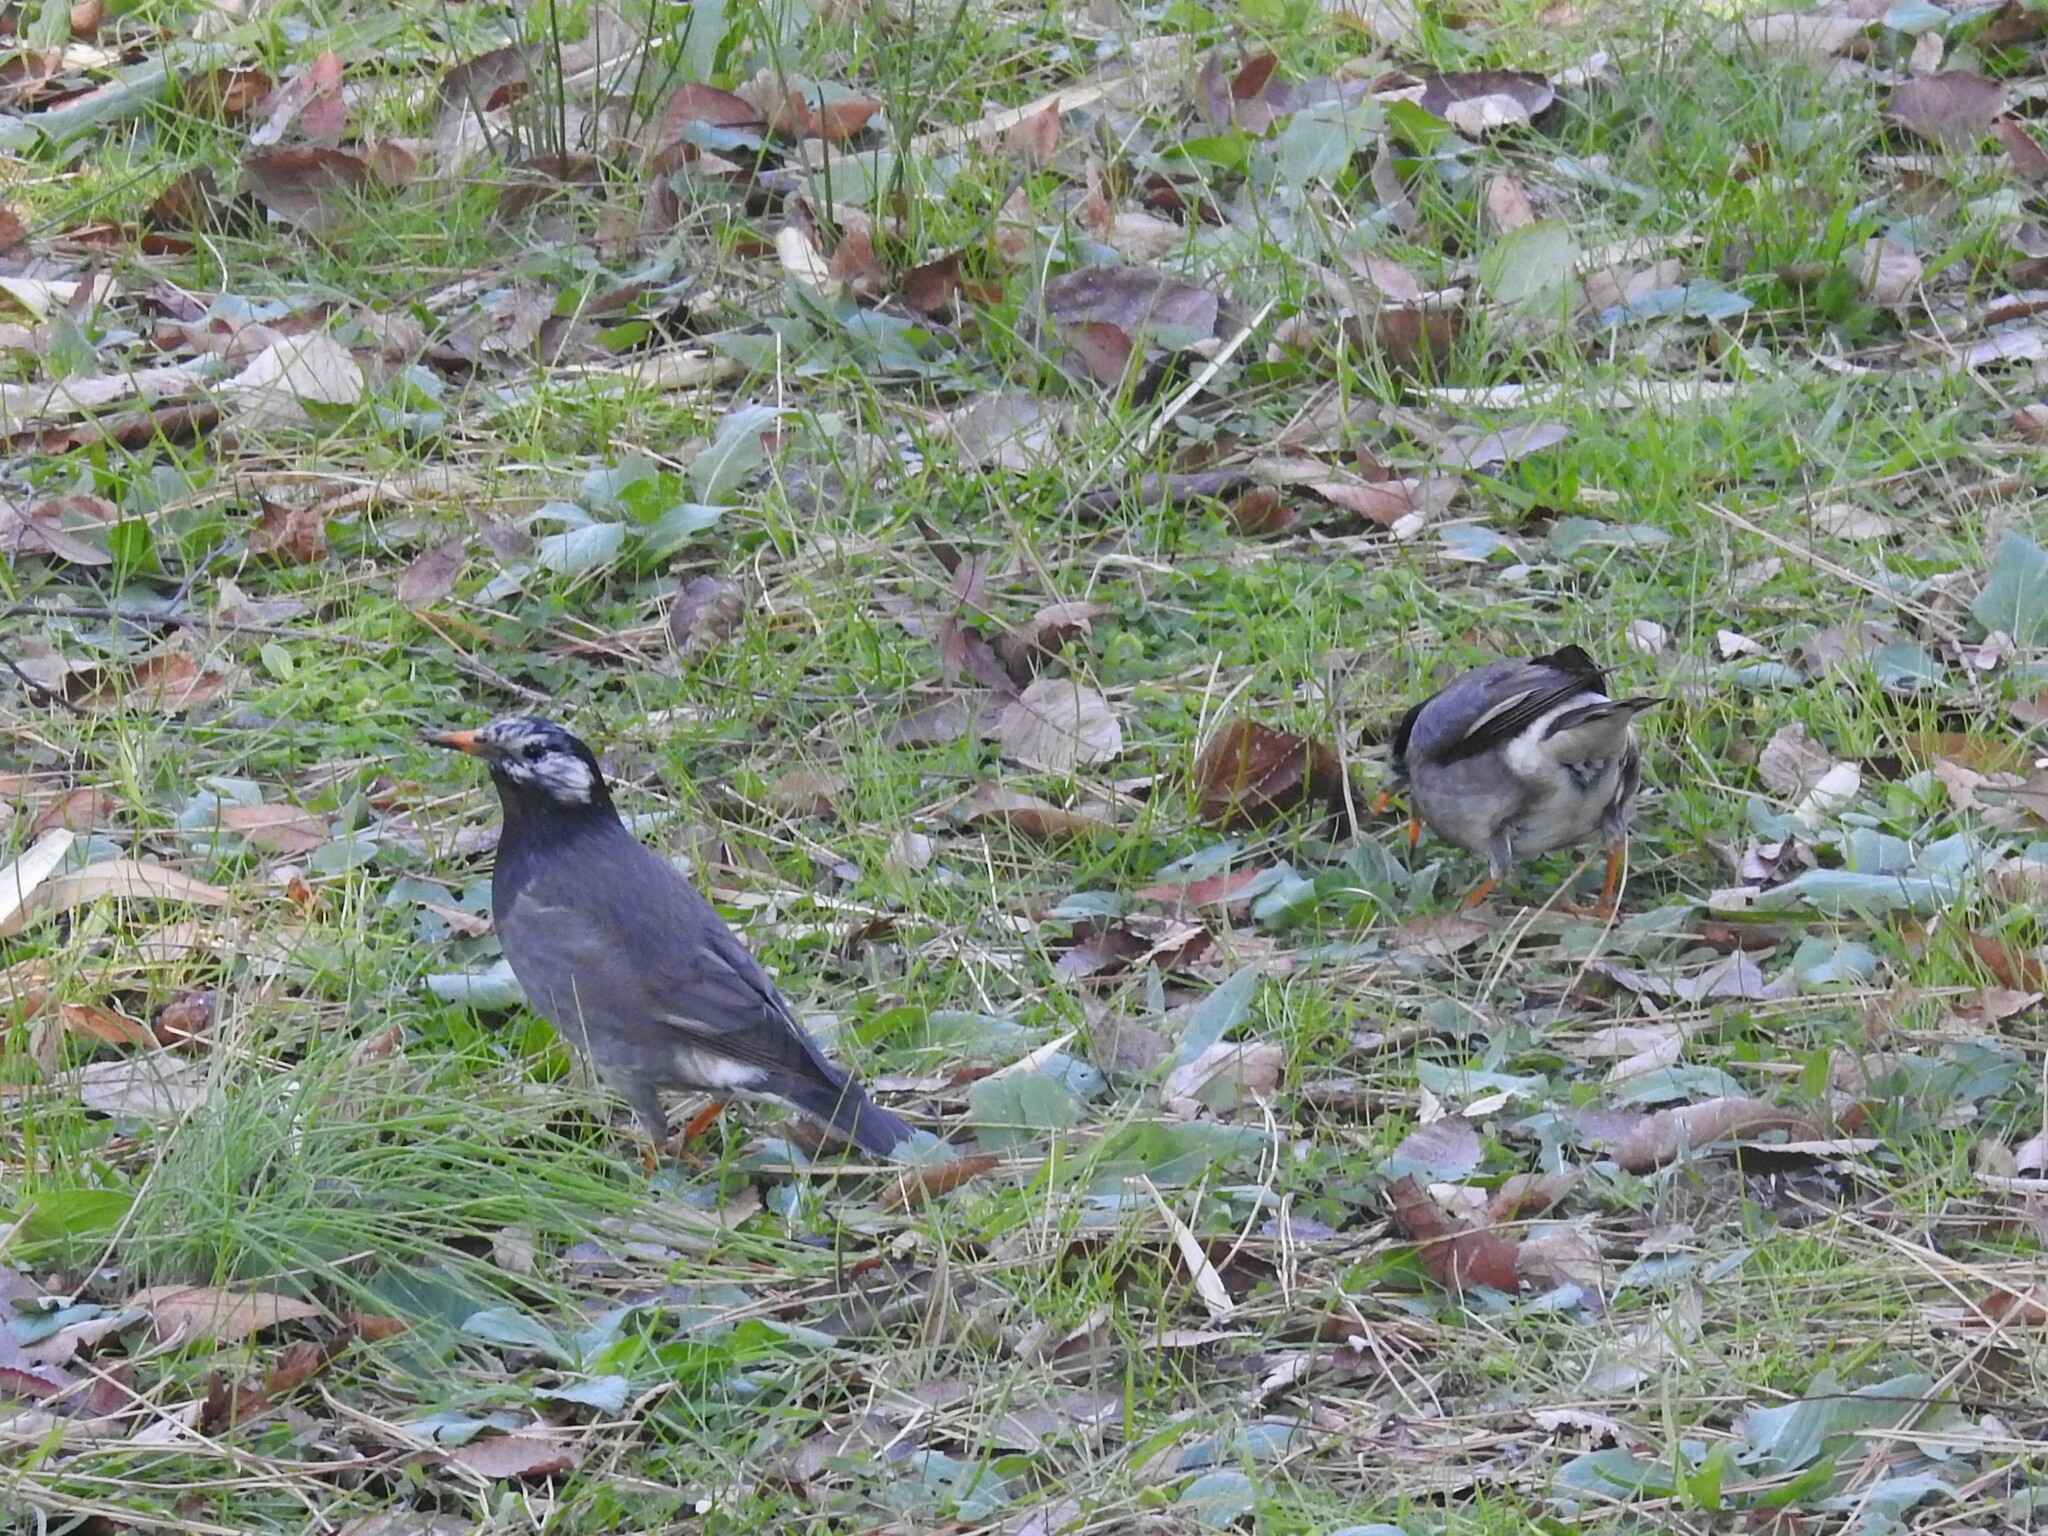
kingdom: Animalia
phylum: Chordata
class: Aves
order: Passeriformes
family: Sturnidae
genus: Spodiopsar
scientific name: Spodiopsar cineraceus
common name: White-cheeked starling
